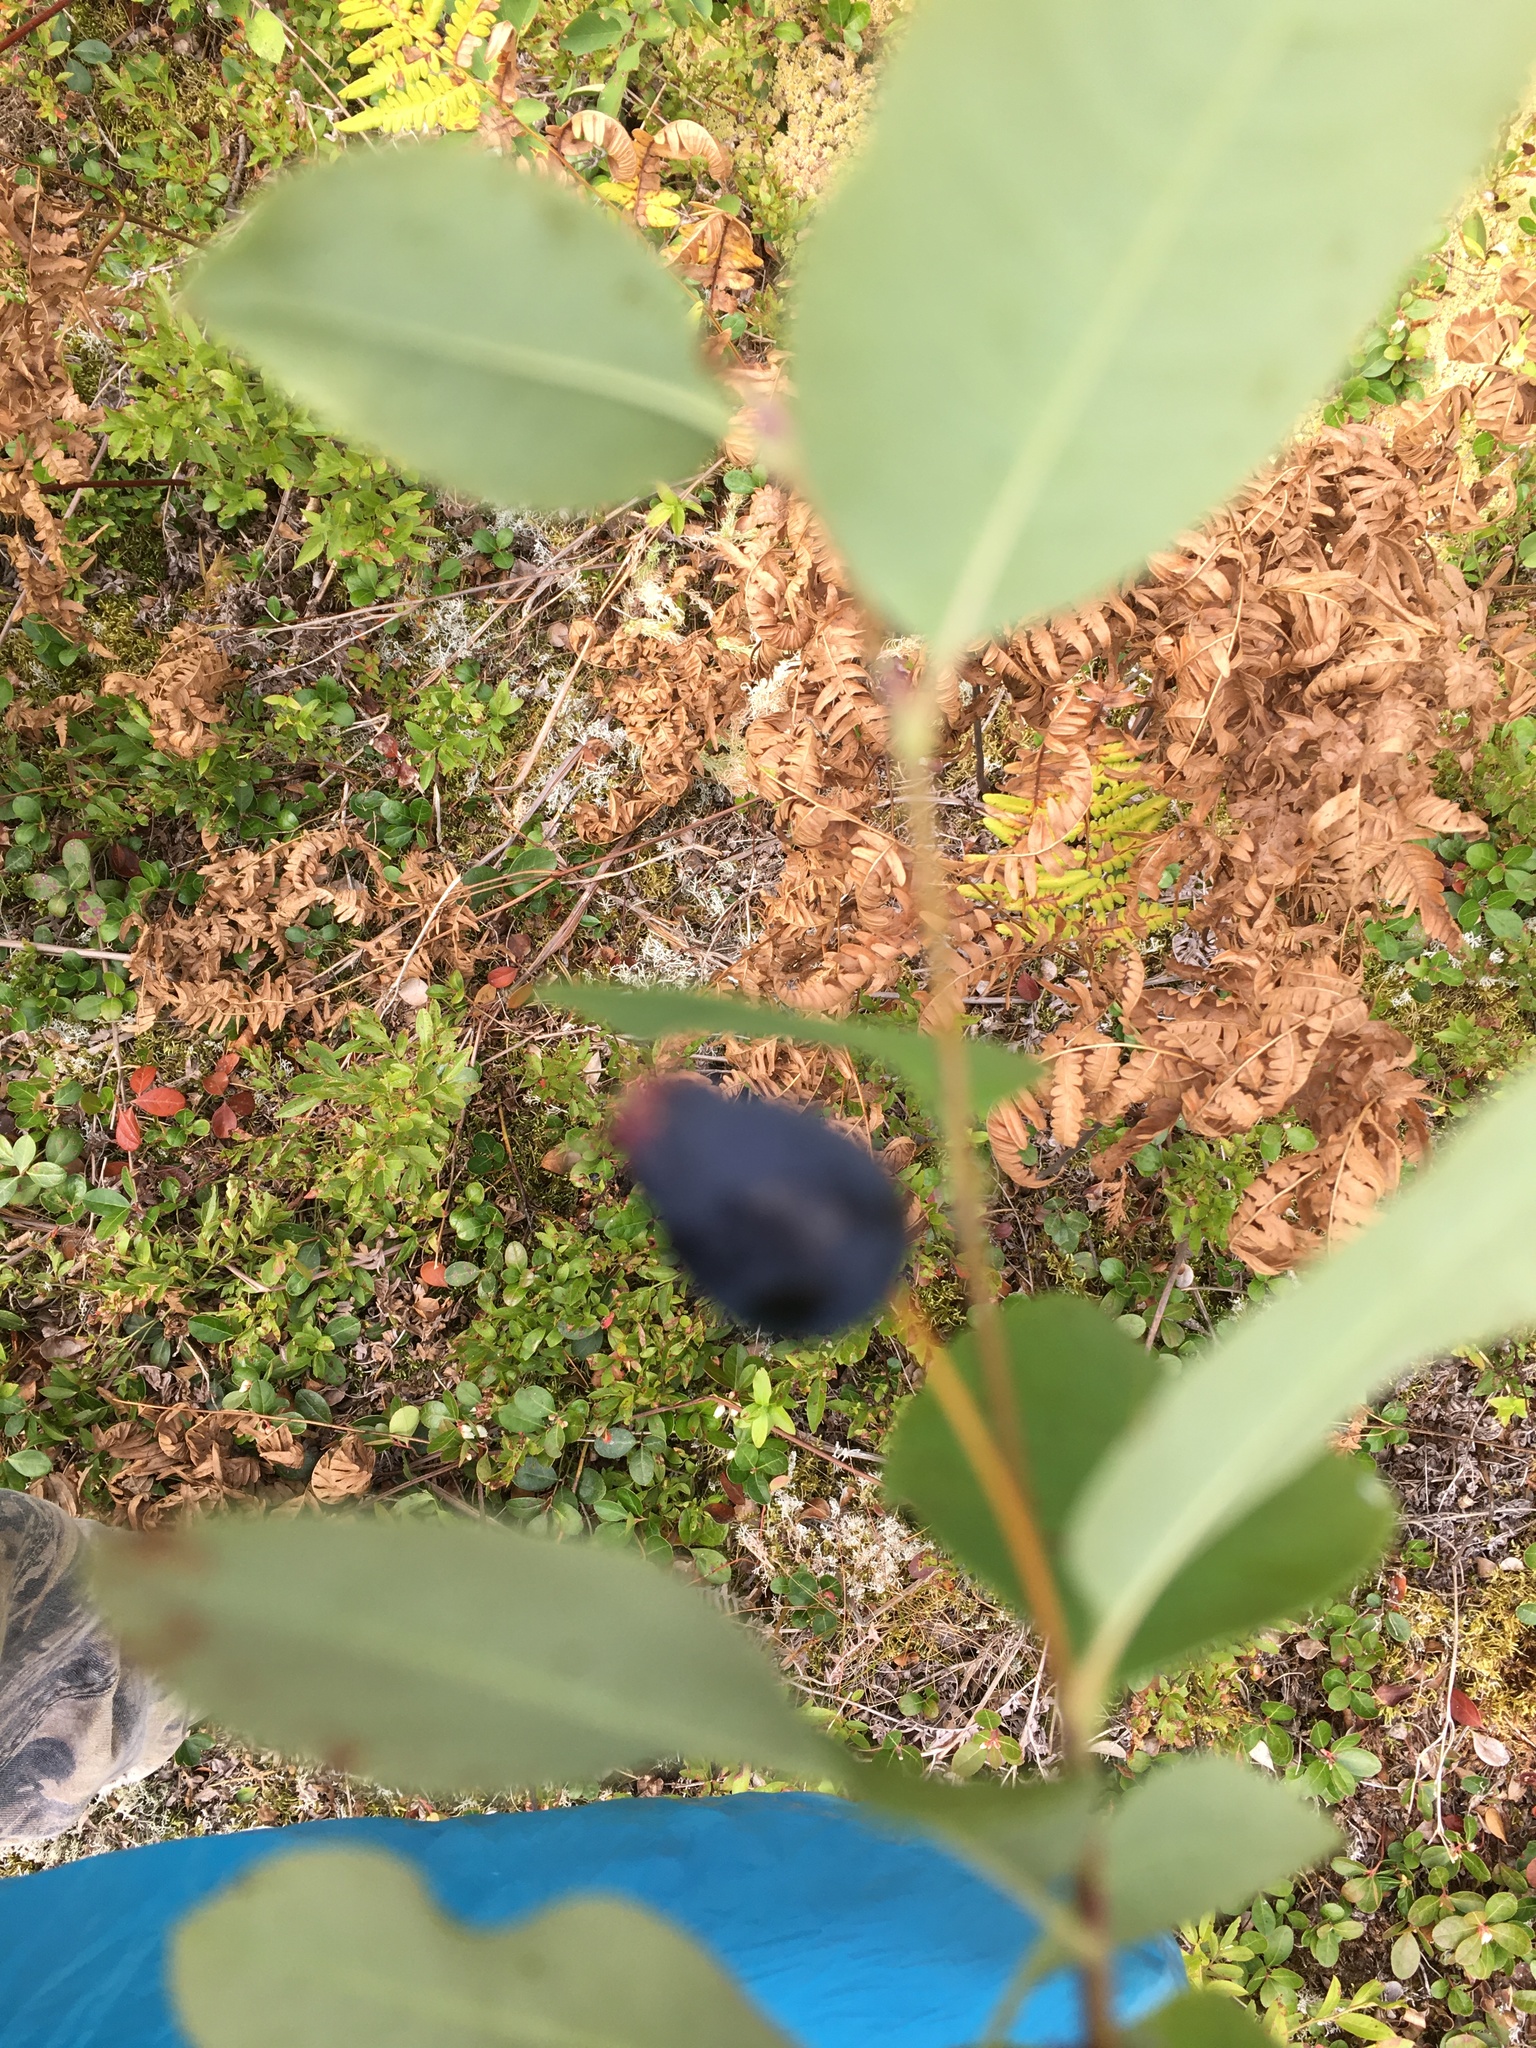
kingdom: Plantae
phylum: Tracheophyta
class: Magnoliopsida
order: Rosales
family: Rosaceae
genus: Amelanchier
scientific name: Amelanchier bartramiana
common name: Mountain serviceberry
